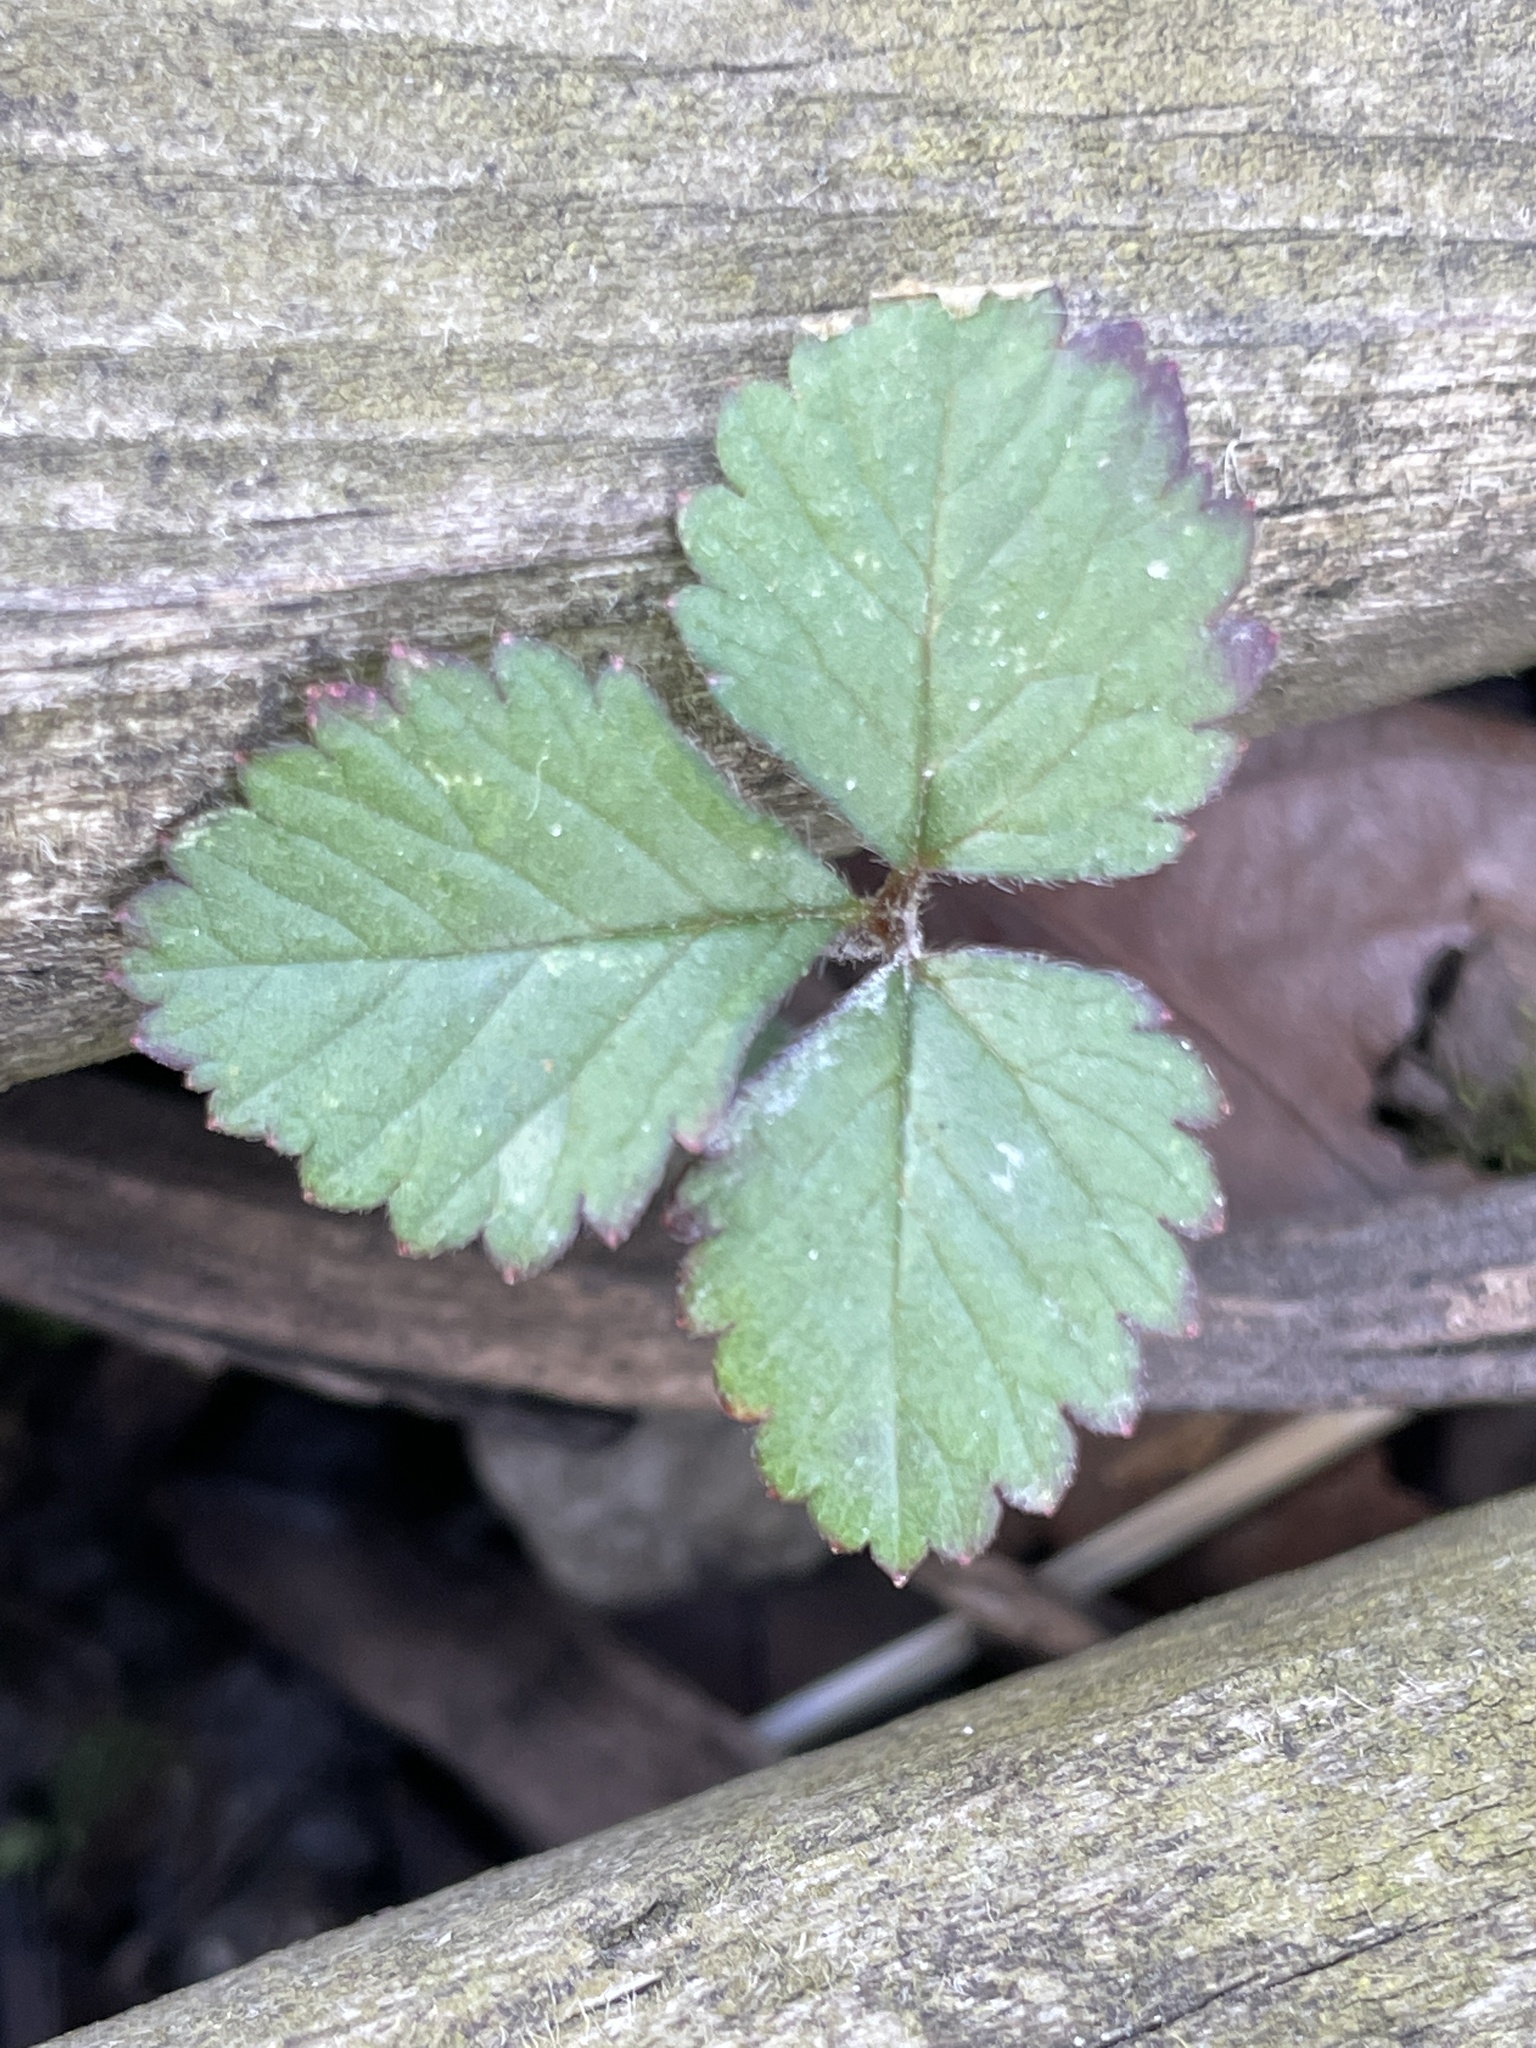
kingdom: Plantae
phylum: Tracheophyta
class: Magnoliopsida
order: Rosales
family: Rosaceae
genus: Potentilla
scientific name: Potentilla indica
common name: Yellow-flowered strawberry
